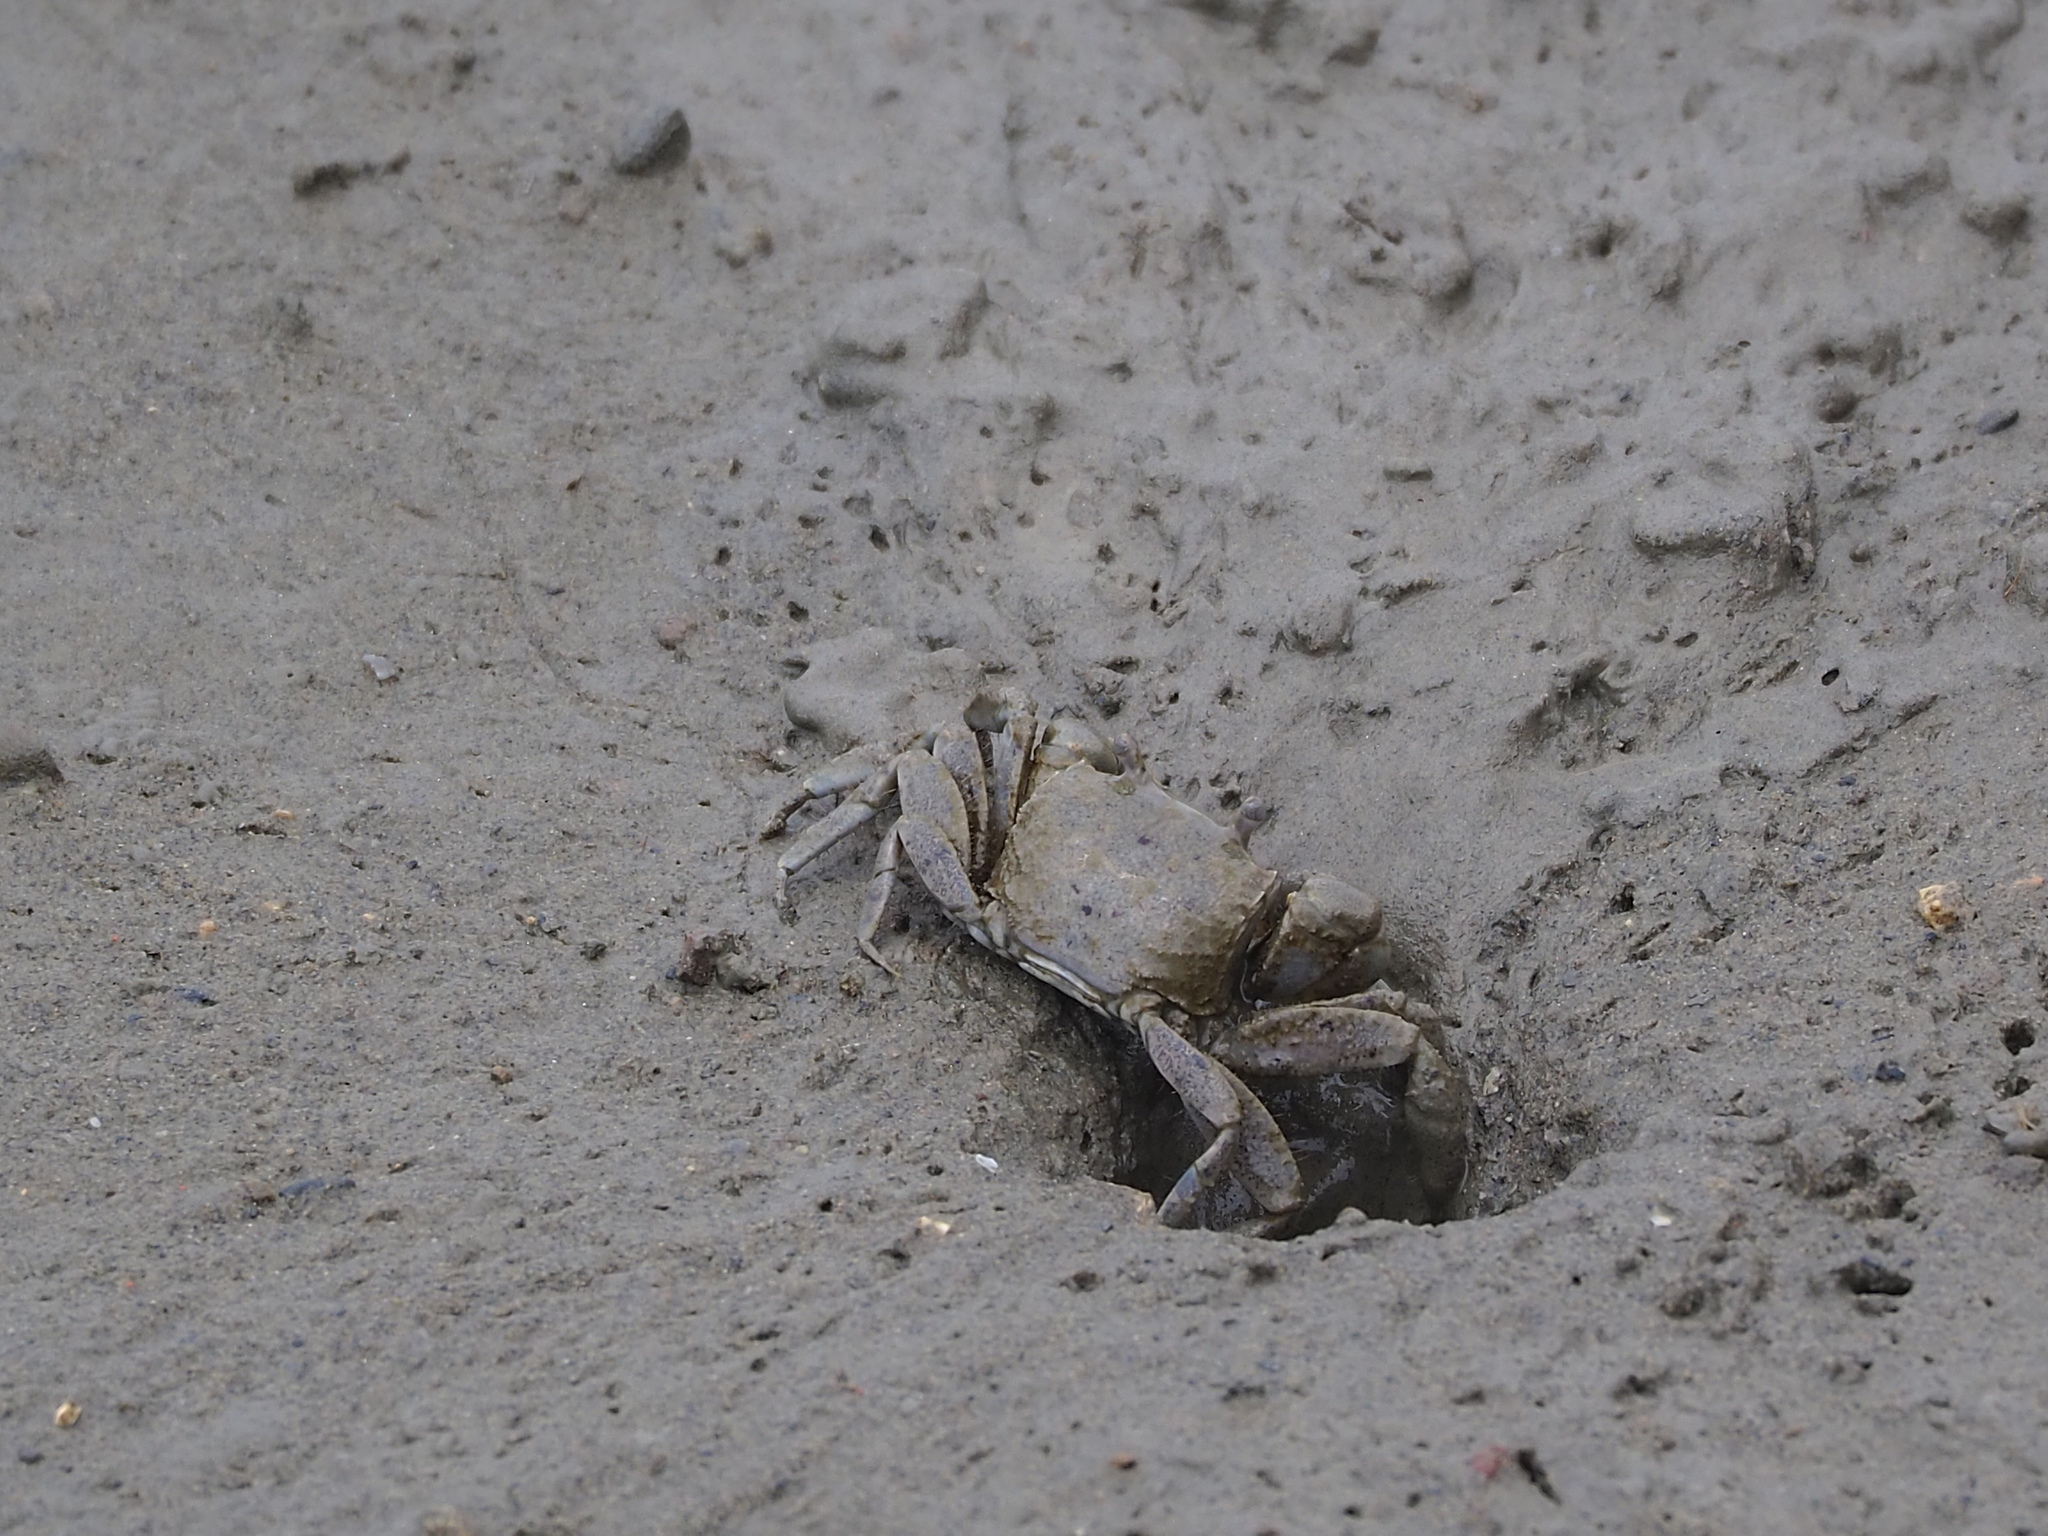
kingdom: Animalia
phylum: Arthropoda
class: Malacostraca
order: Decapoda
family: Varunidae
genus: Helicana
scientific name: Helicana doerjesi
